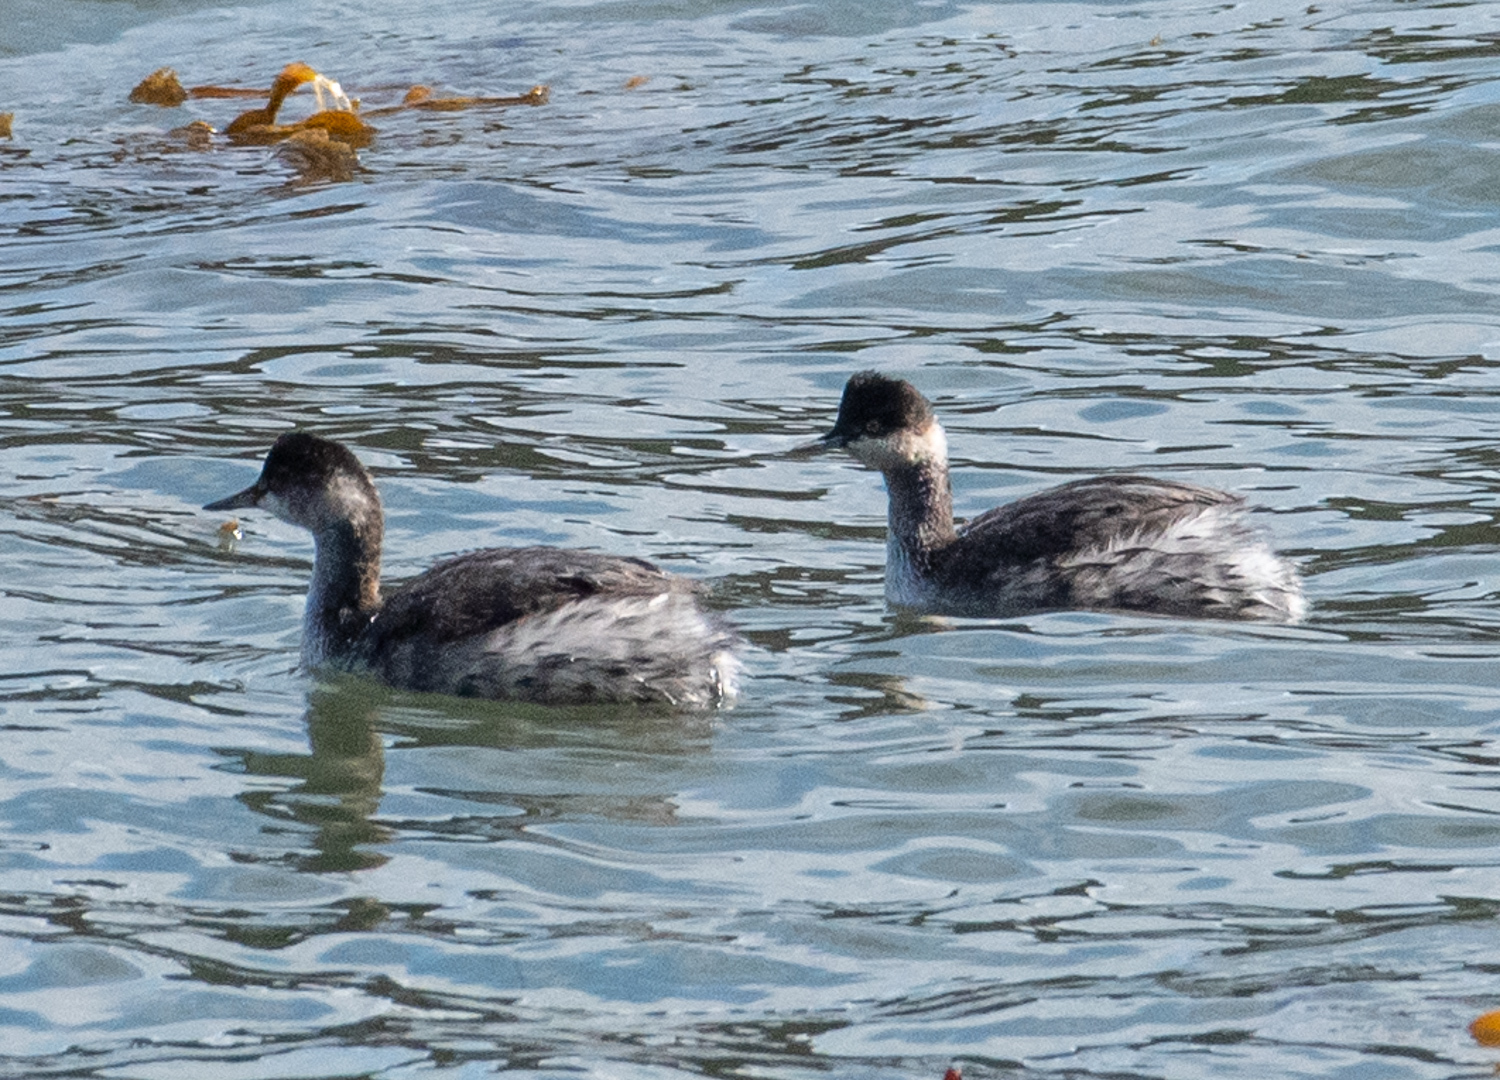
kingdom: Animalia
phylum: Chordata
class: Aves
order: Podicipediformes
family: Podicipedidae
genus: Podiceps
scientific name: Podiceps nigricollis
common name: Black-necked grebe
